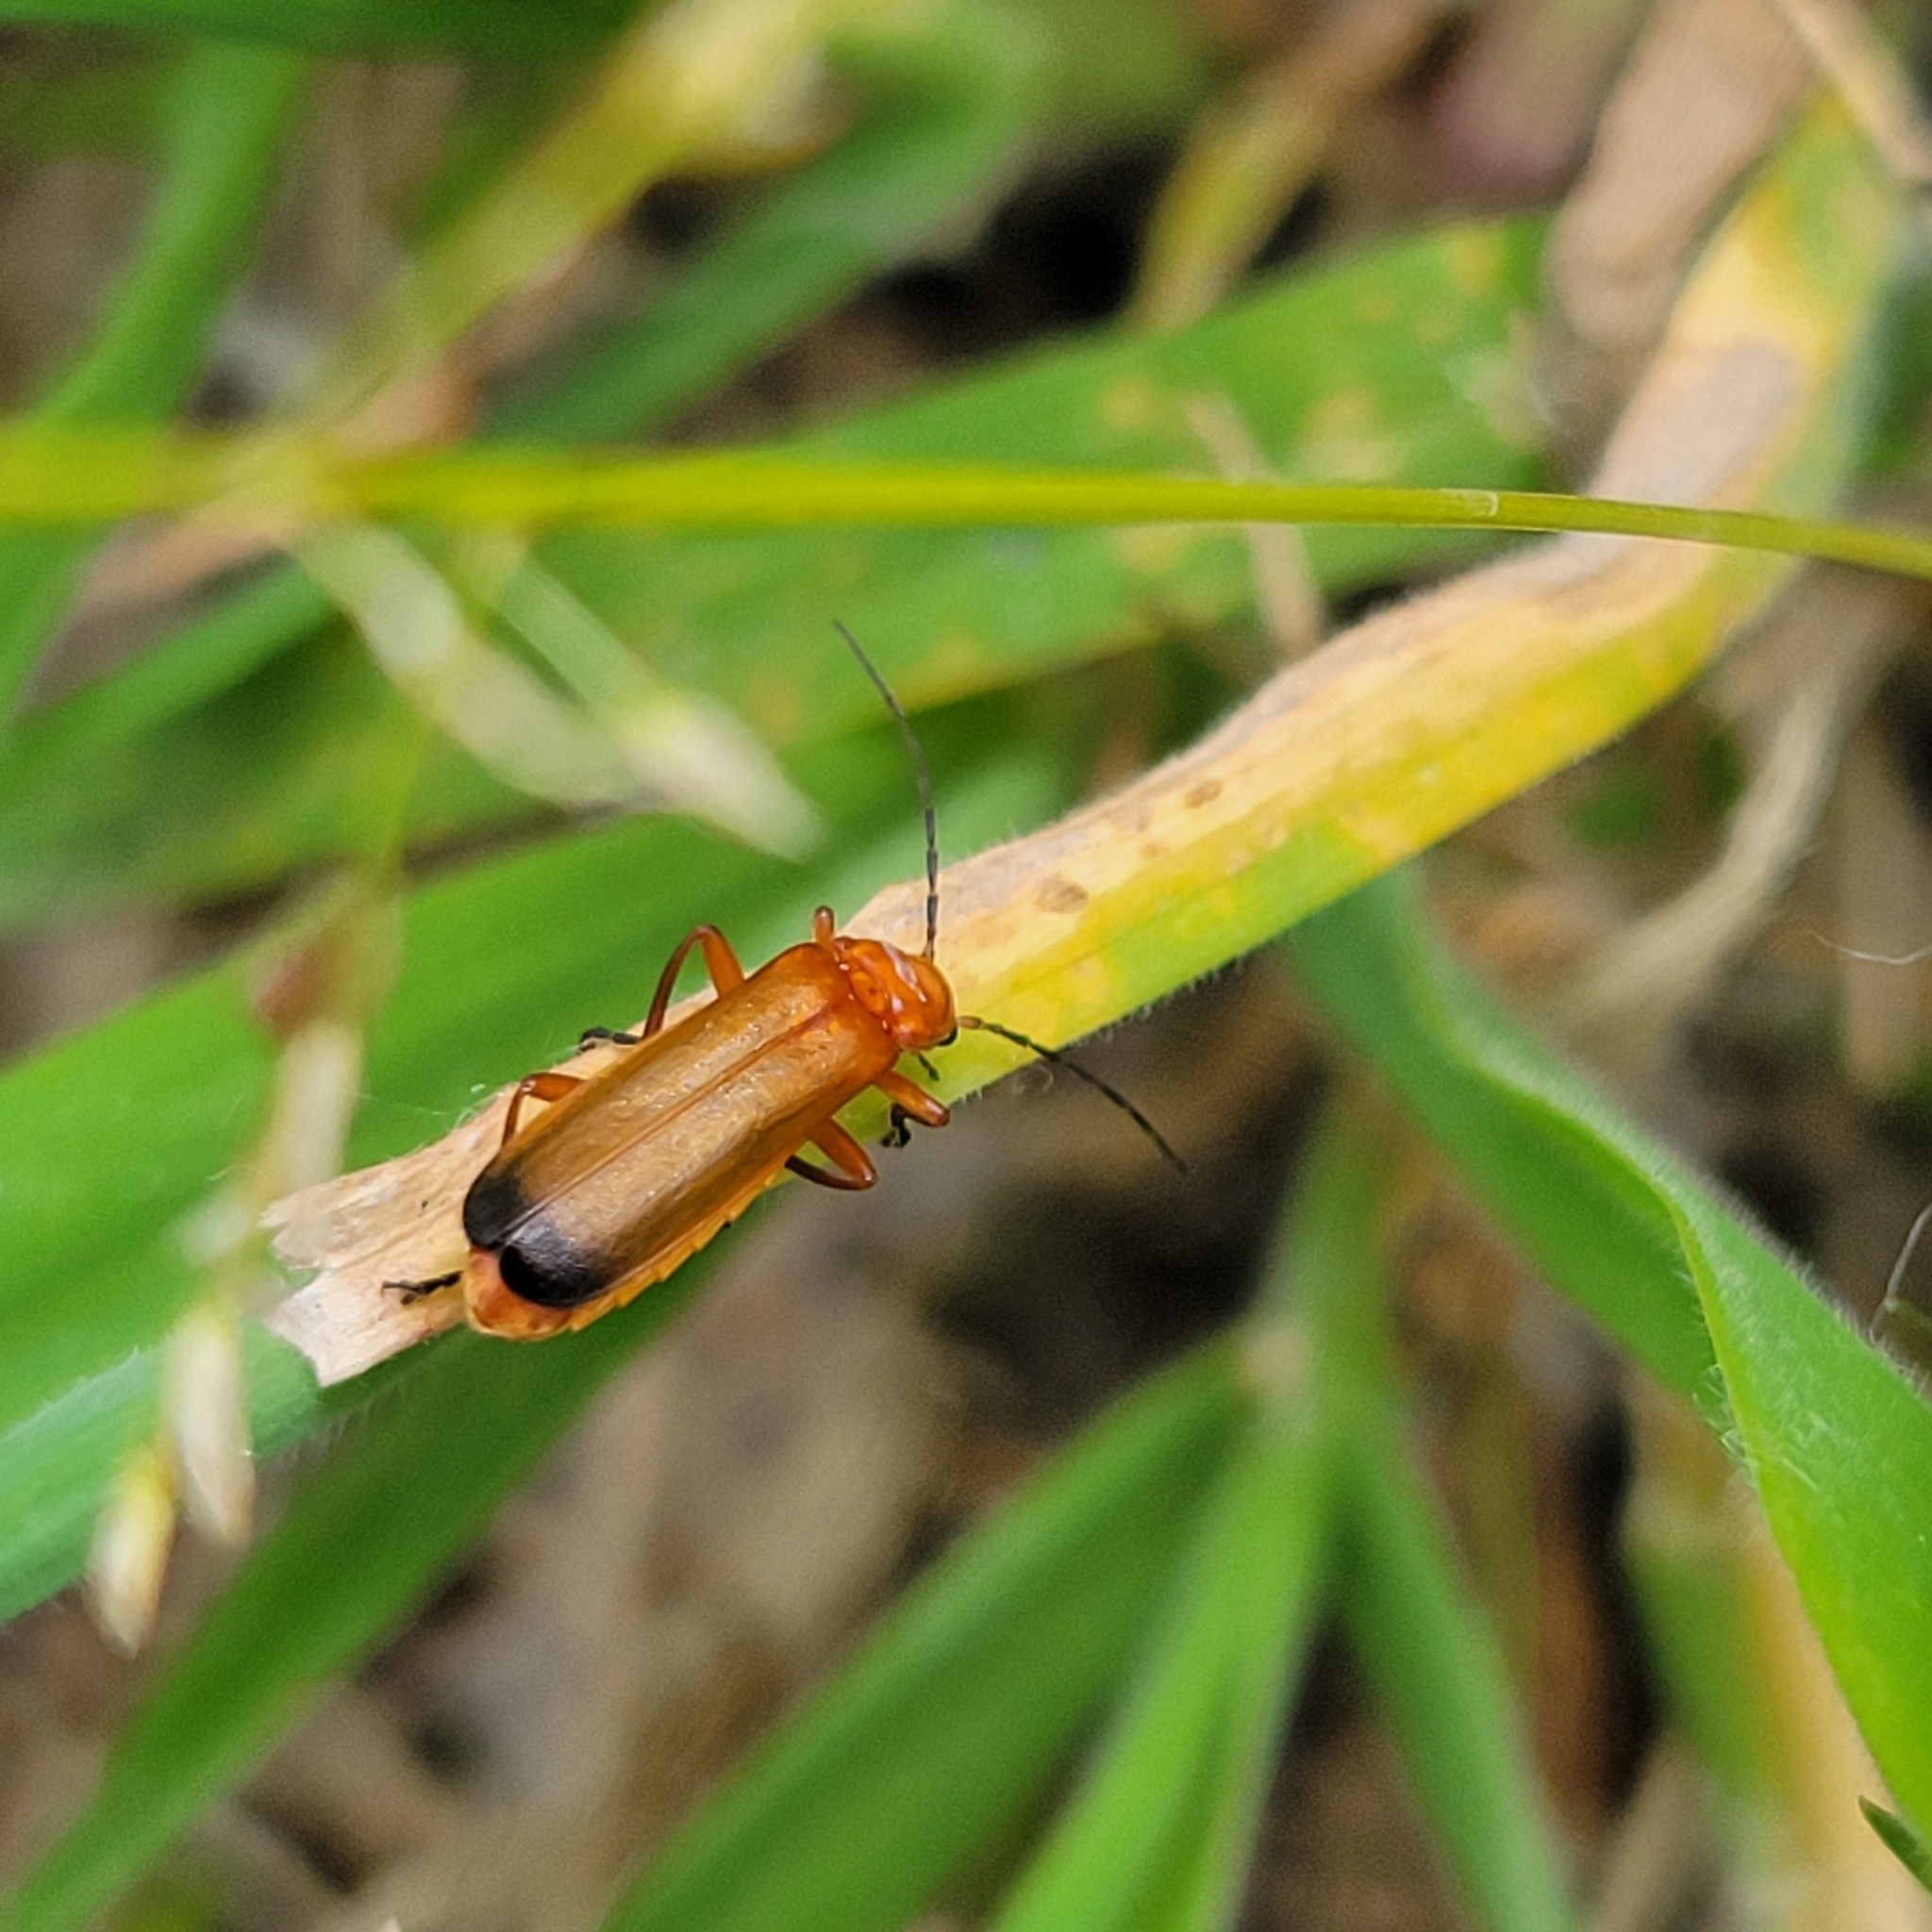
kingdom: Animalia
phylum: Arthropoda
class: Insecta
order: Coleoptera
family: Cantharidae
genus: Rhagonycha
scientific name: Rhagonycha fulva
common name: Common red soldier beetle
